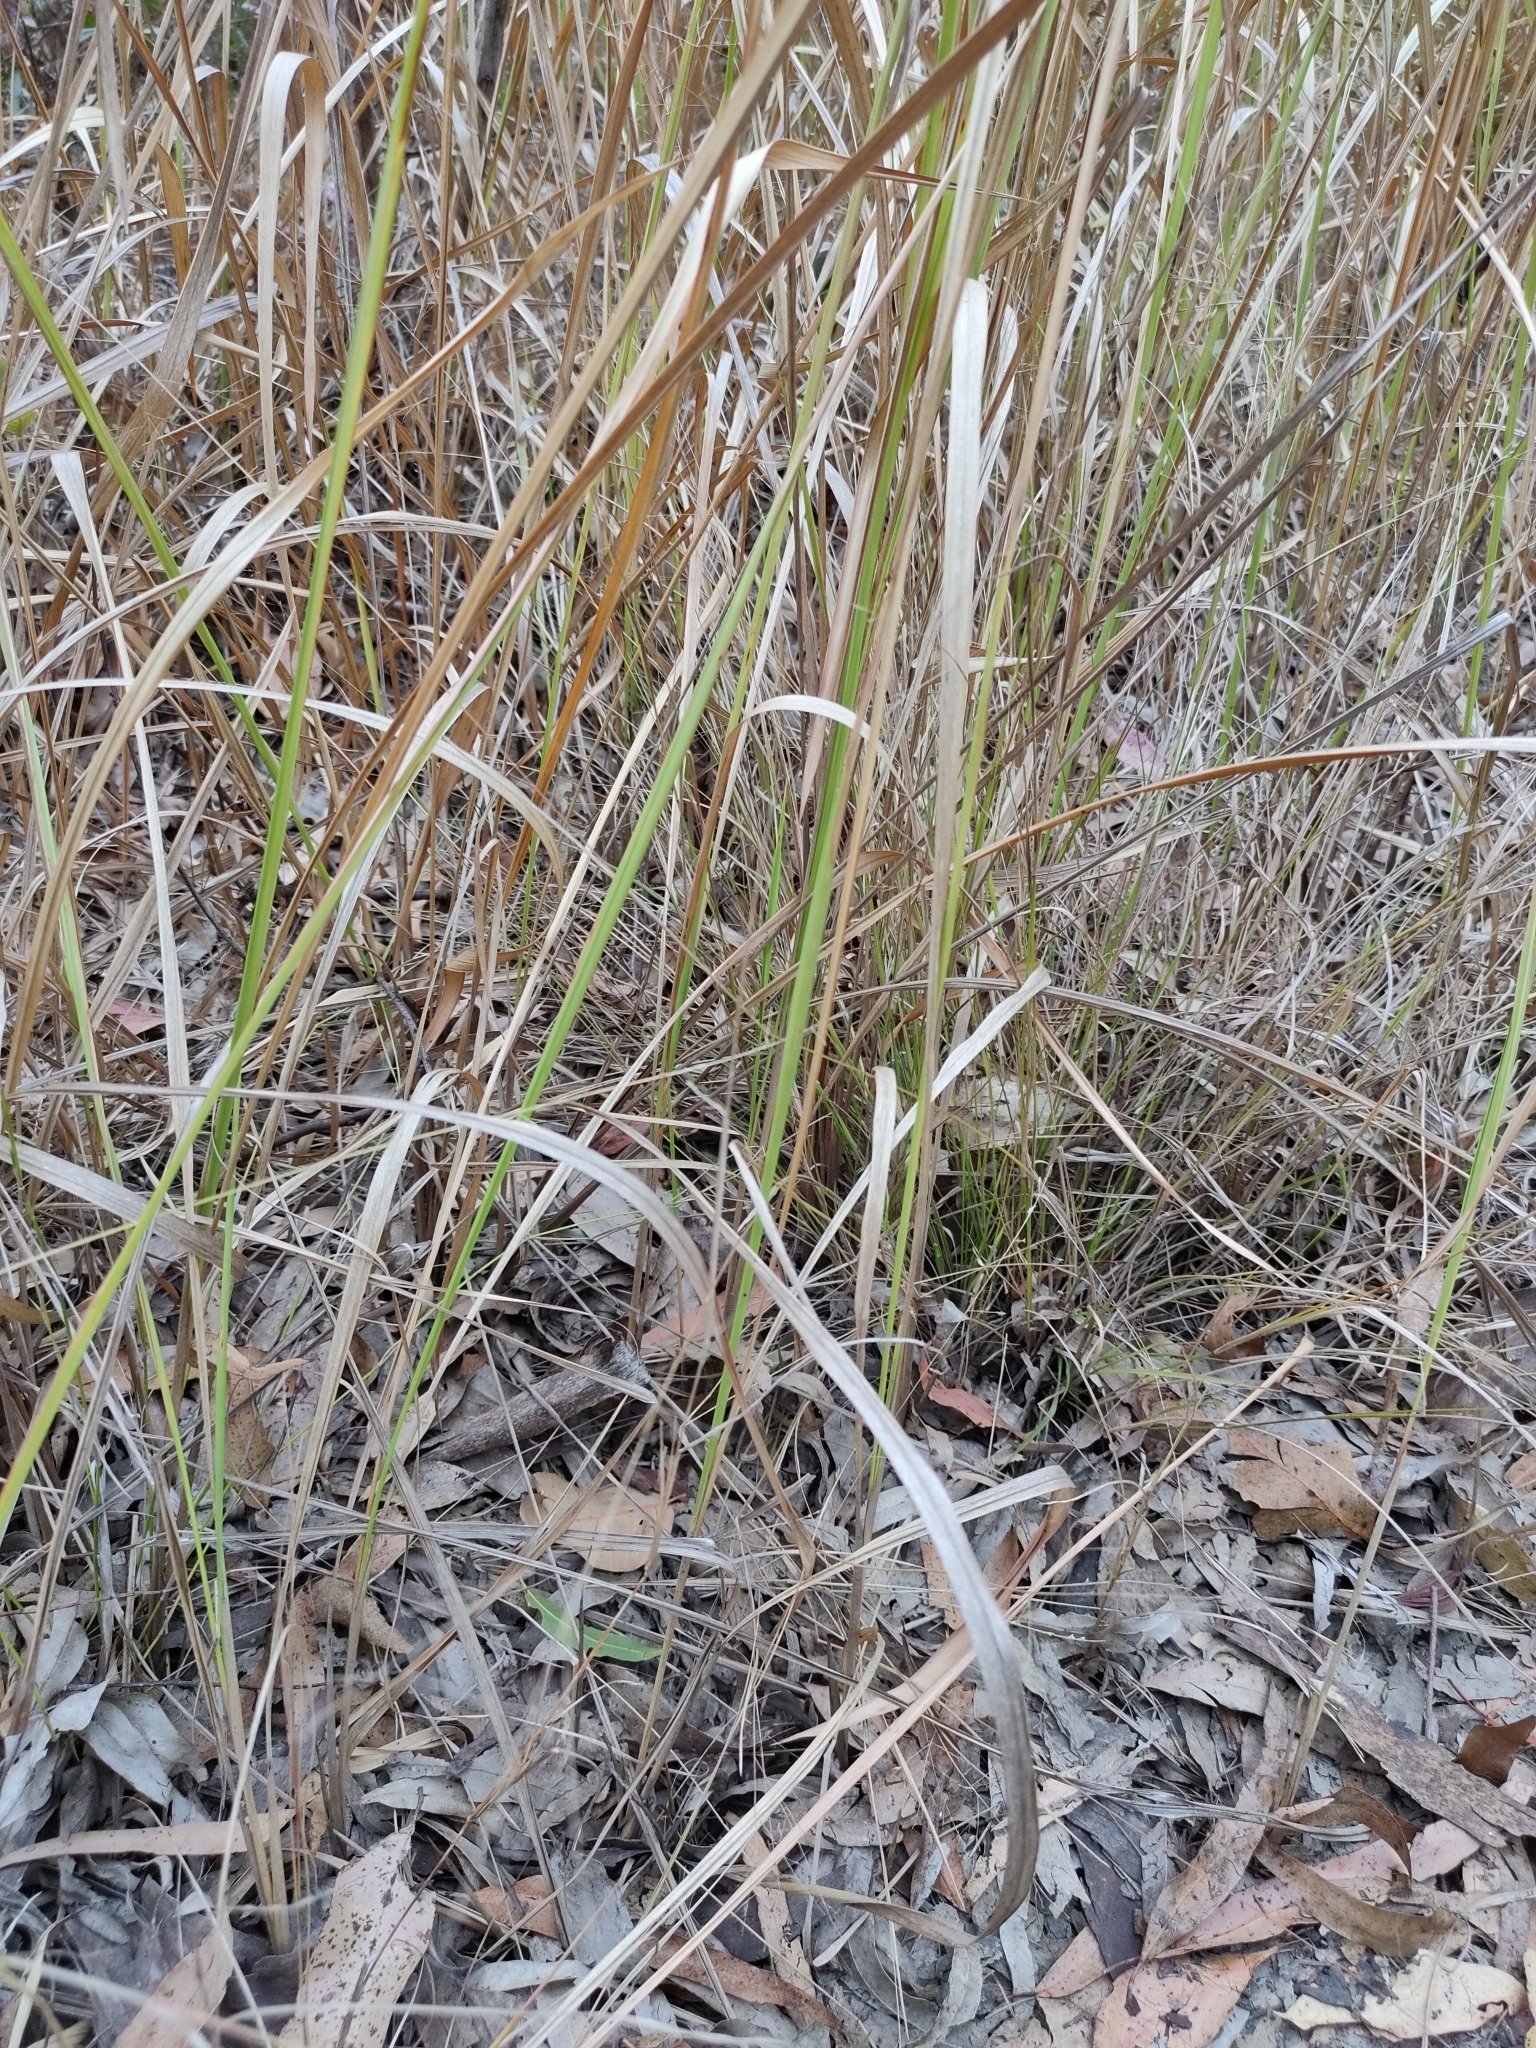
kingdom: Plantae
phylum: Tracheophyta
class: Liliopsida
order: Poales
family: Poaceae
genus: Imperata
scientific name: Imperata cylindrica
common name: Cogongrass
